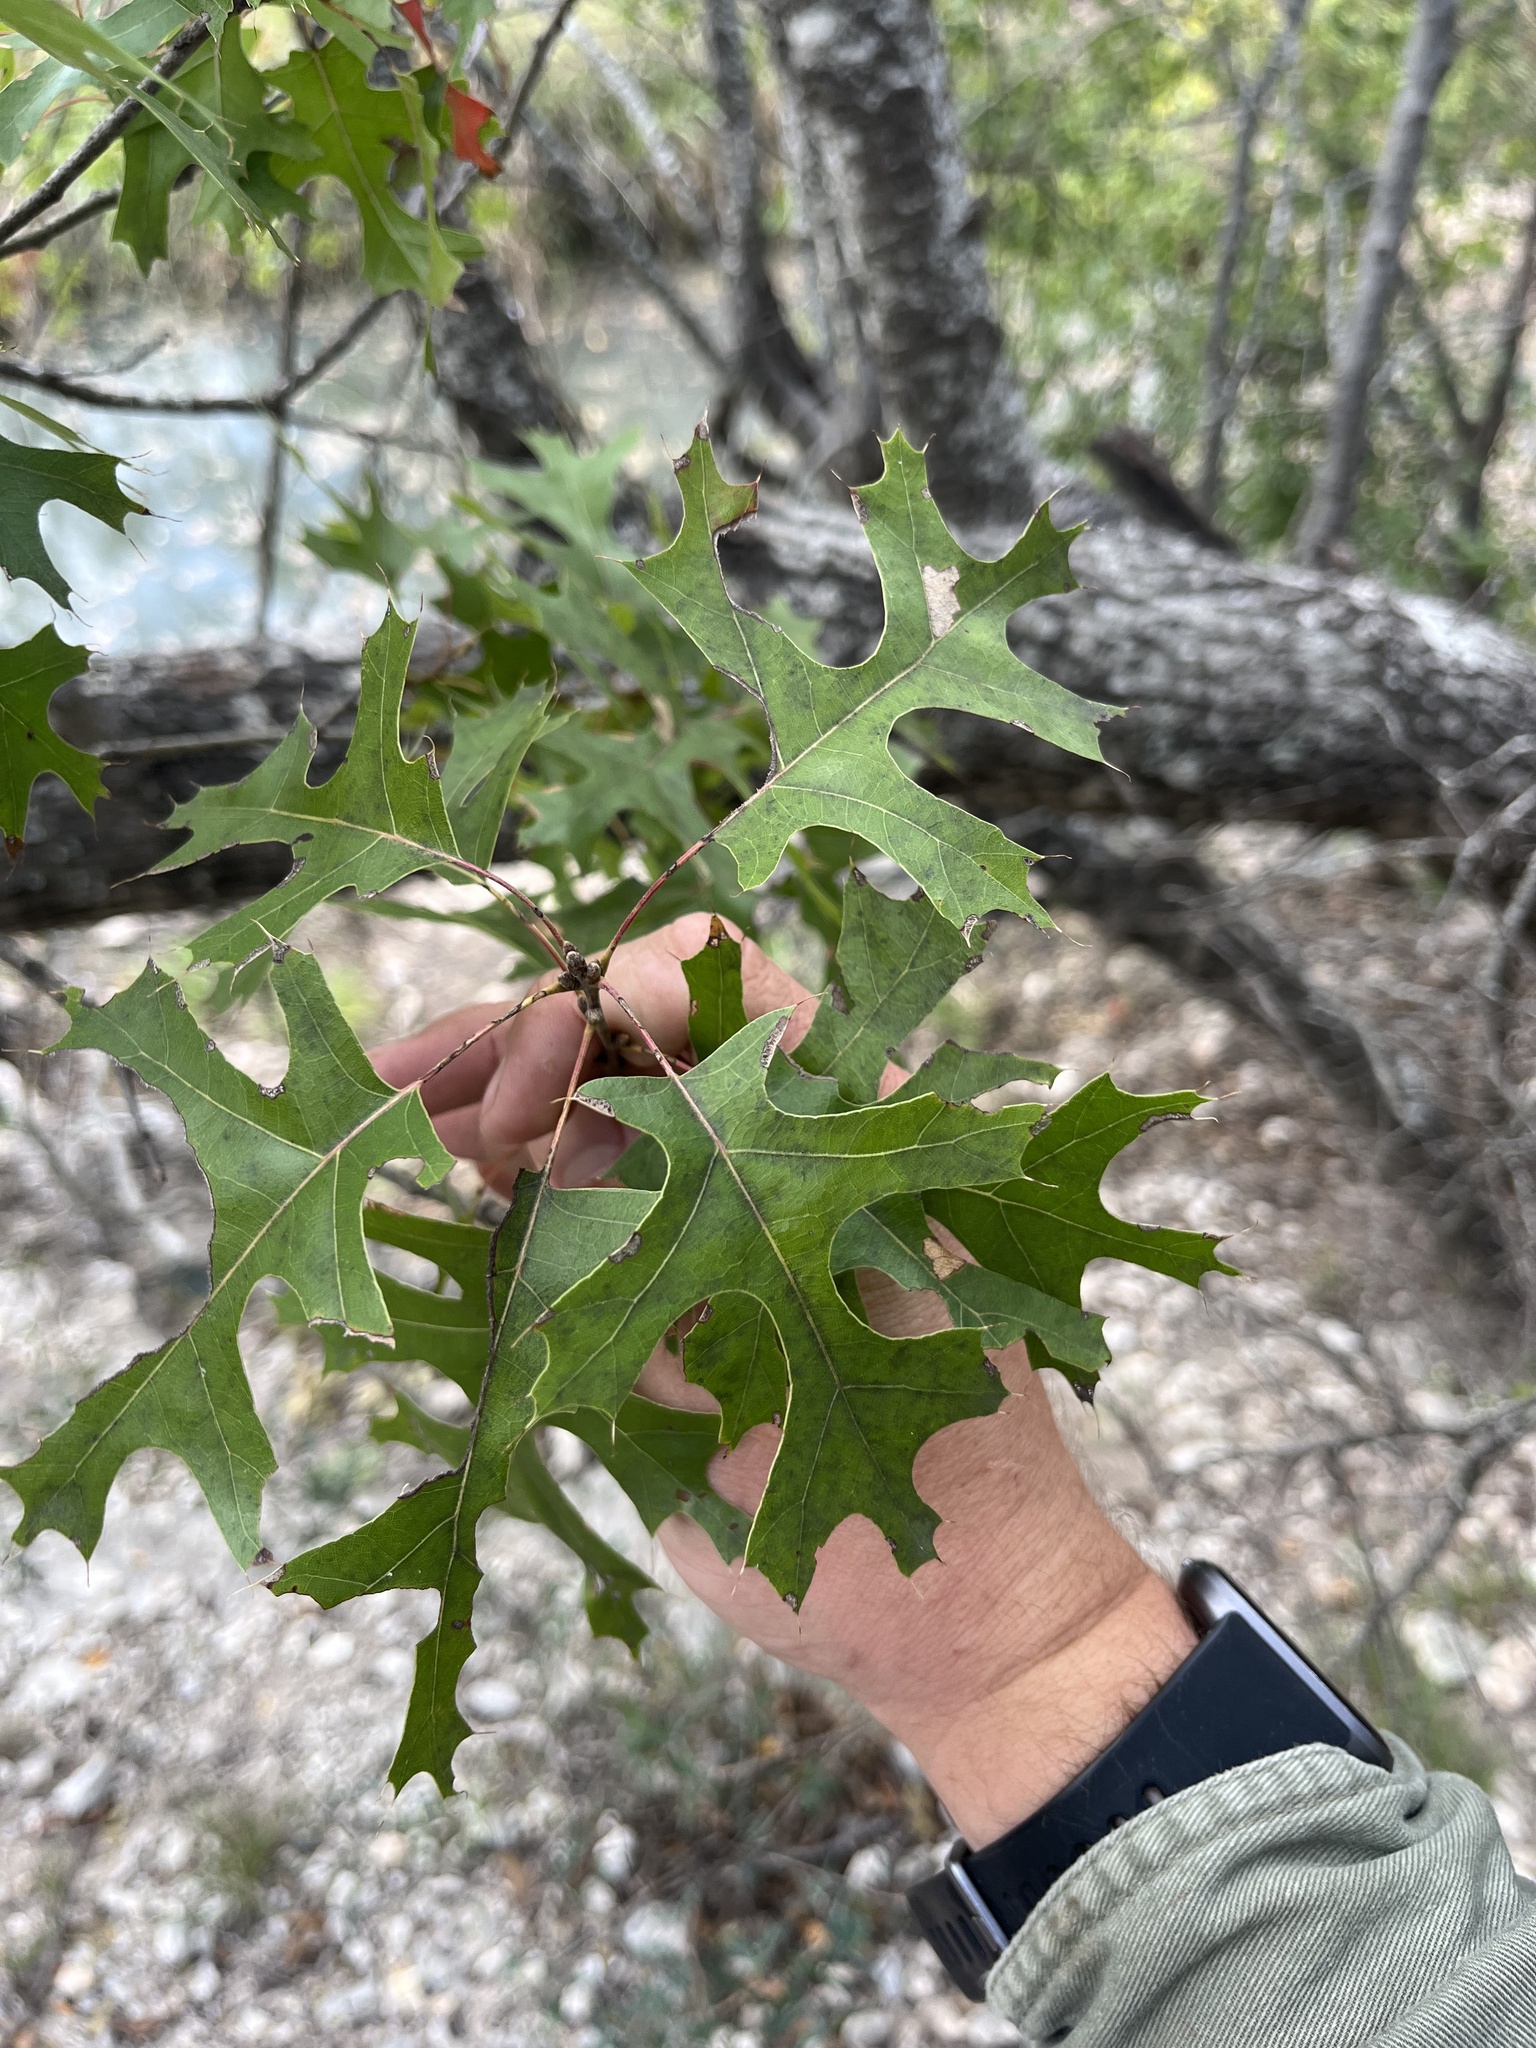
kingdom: Plantae
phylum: Tracheophyta
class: Magnoliopsida
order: Fagales
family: Fagaceae
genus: Quercus
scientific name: Quercus buckleyi
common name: Buckley oak
